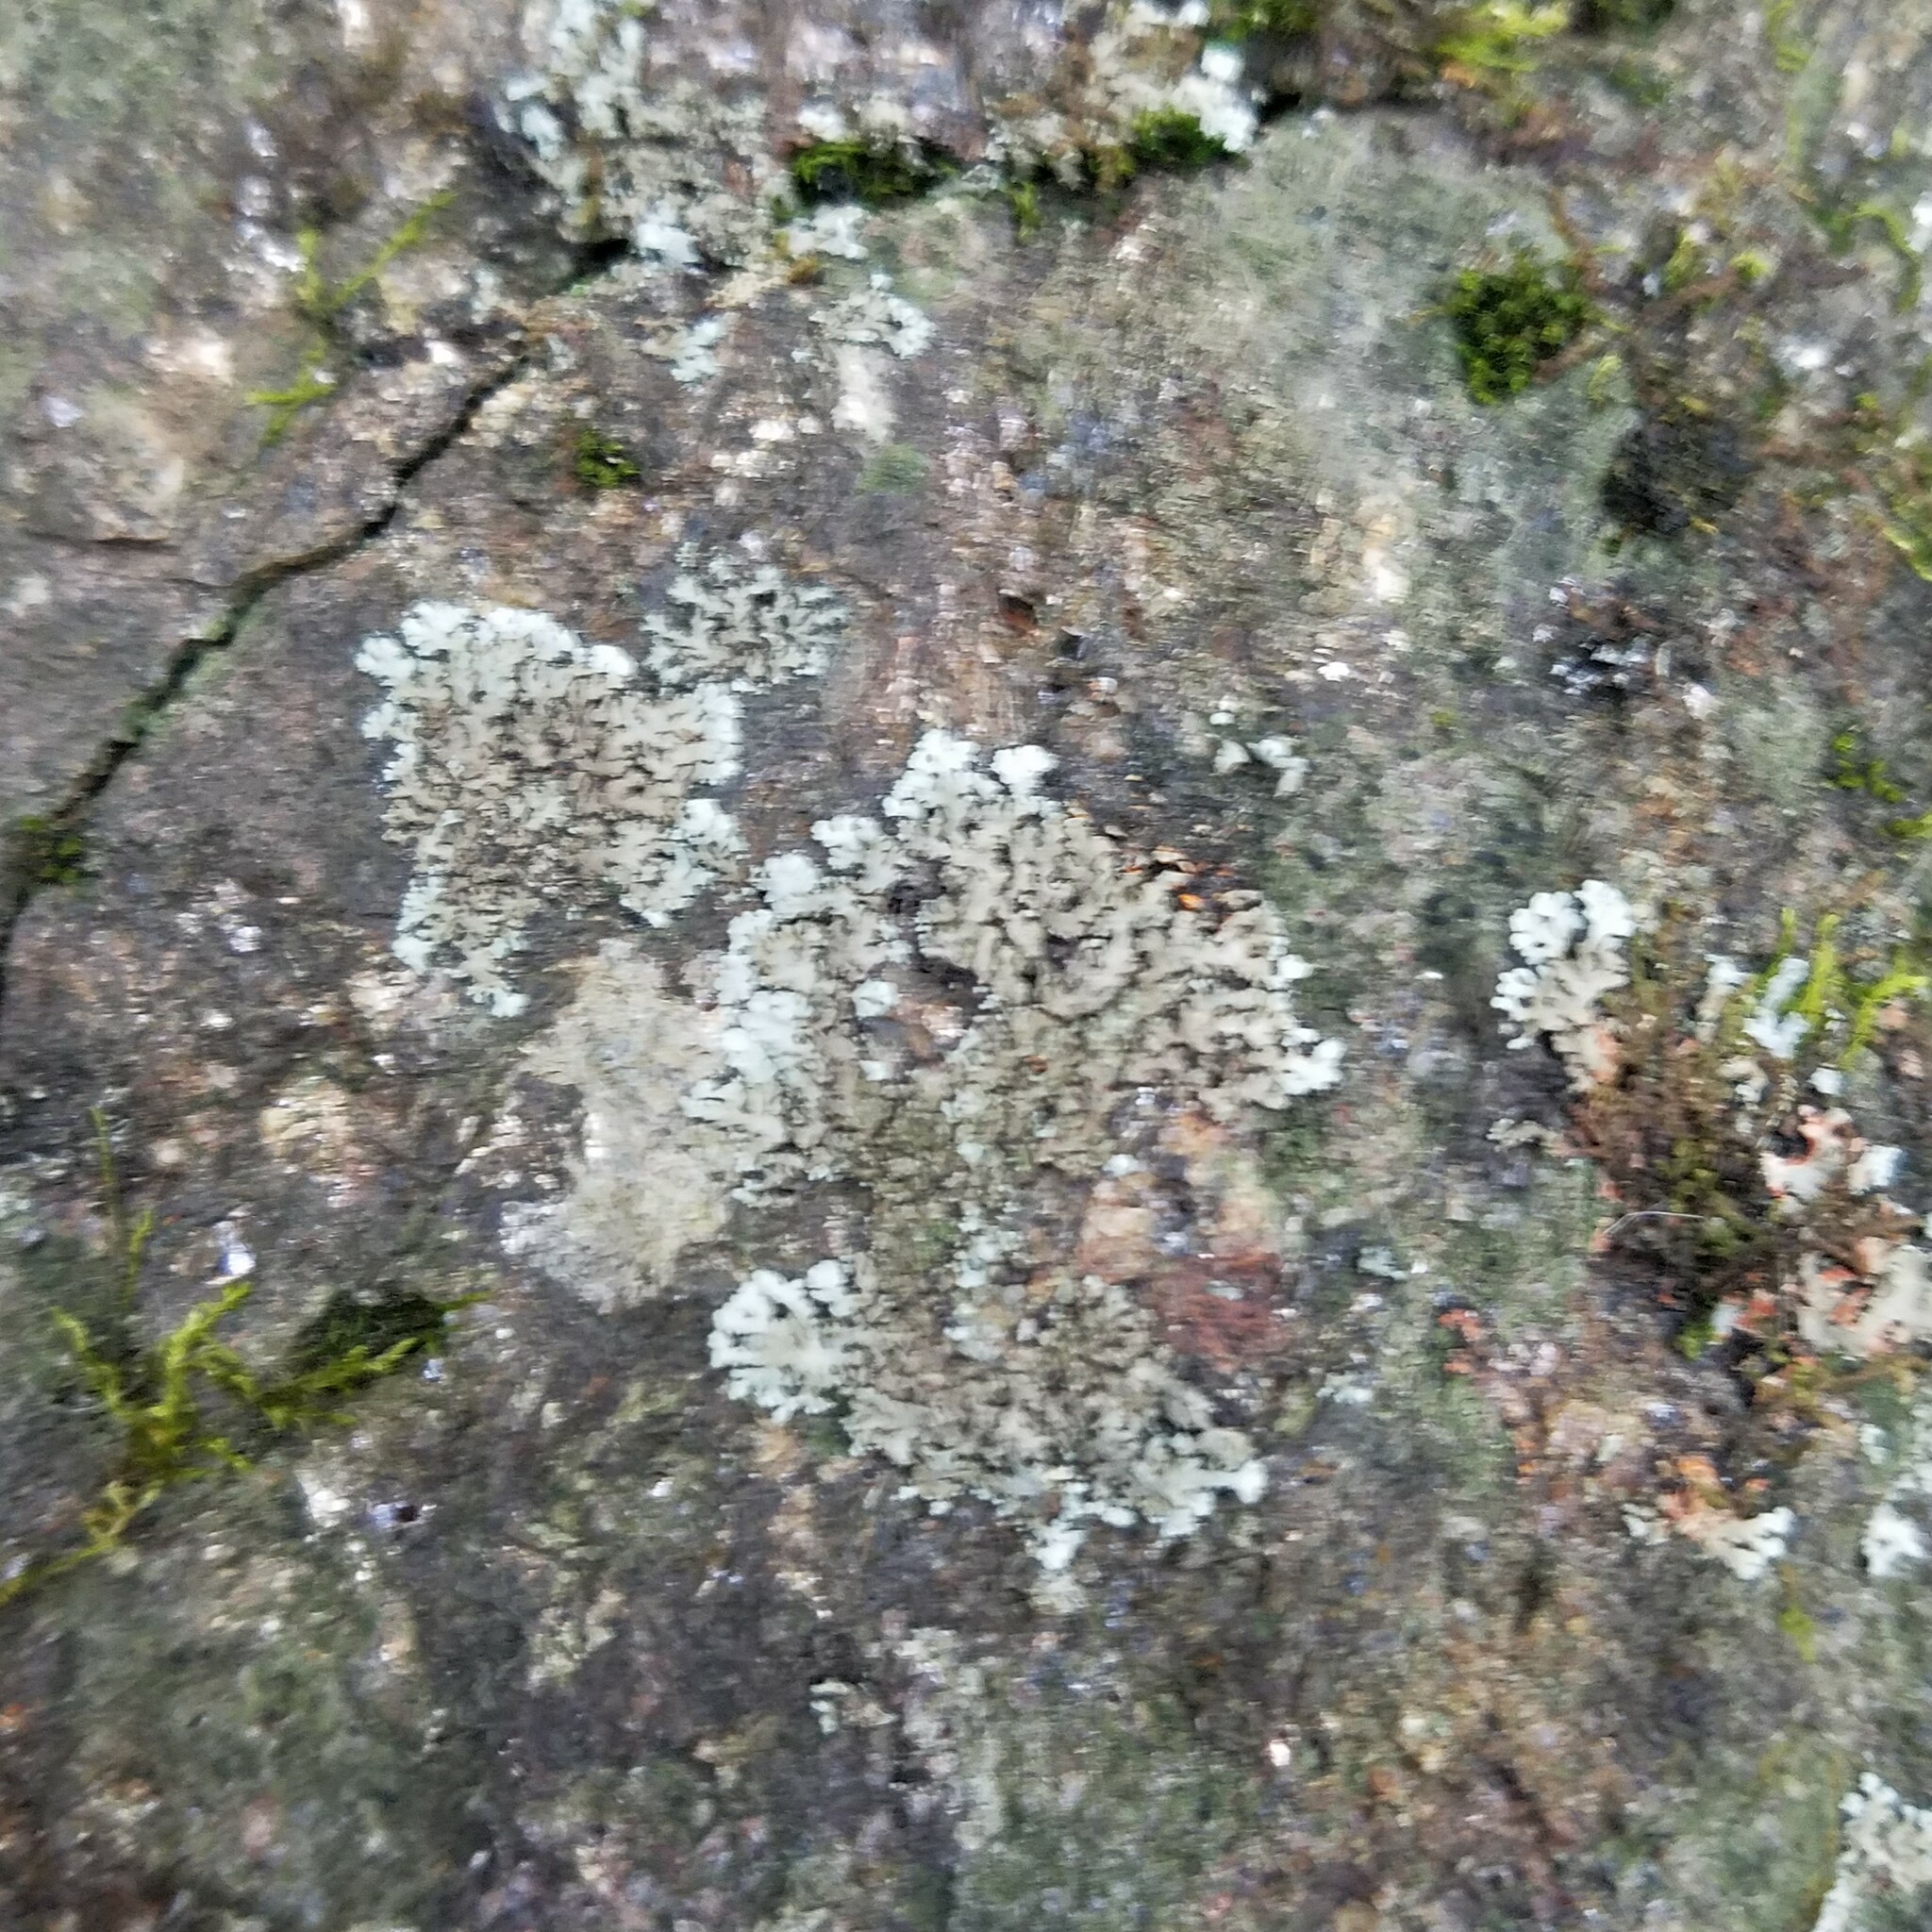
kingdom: Fungi
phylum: Ascomycota
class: Lecanoromycetes
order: Caliciales
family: Physciaceae
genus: Phaeophyscia
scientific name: Phaeophyscia rubropulchra
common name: Orange-cored shadow lichen
